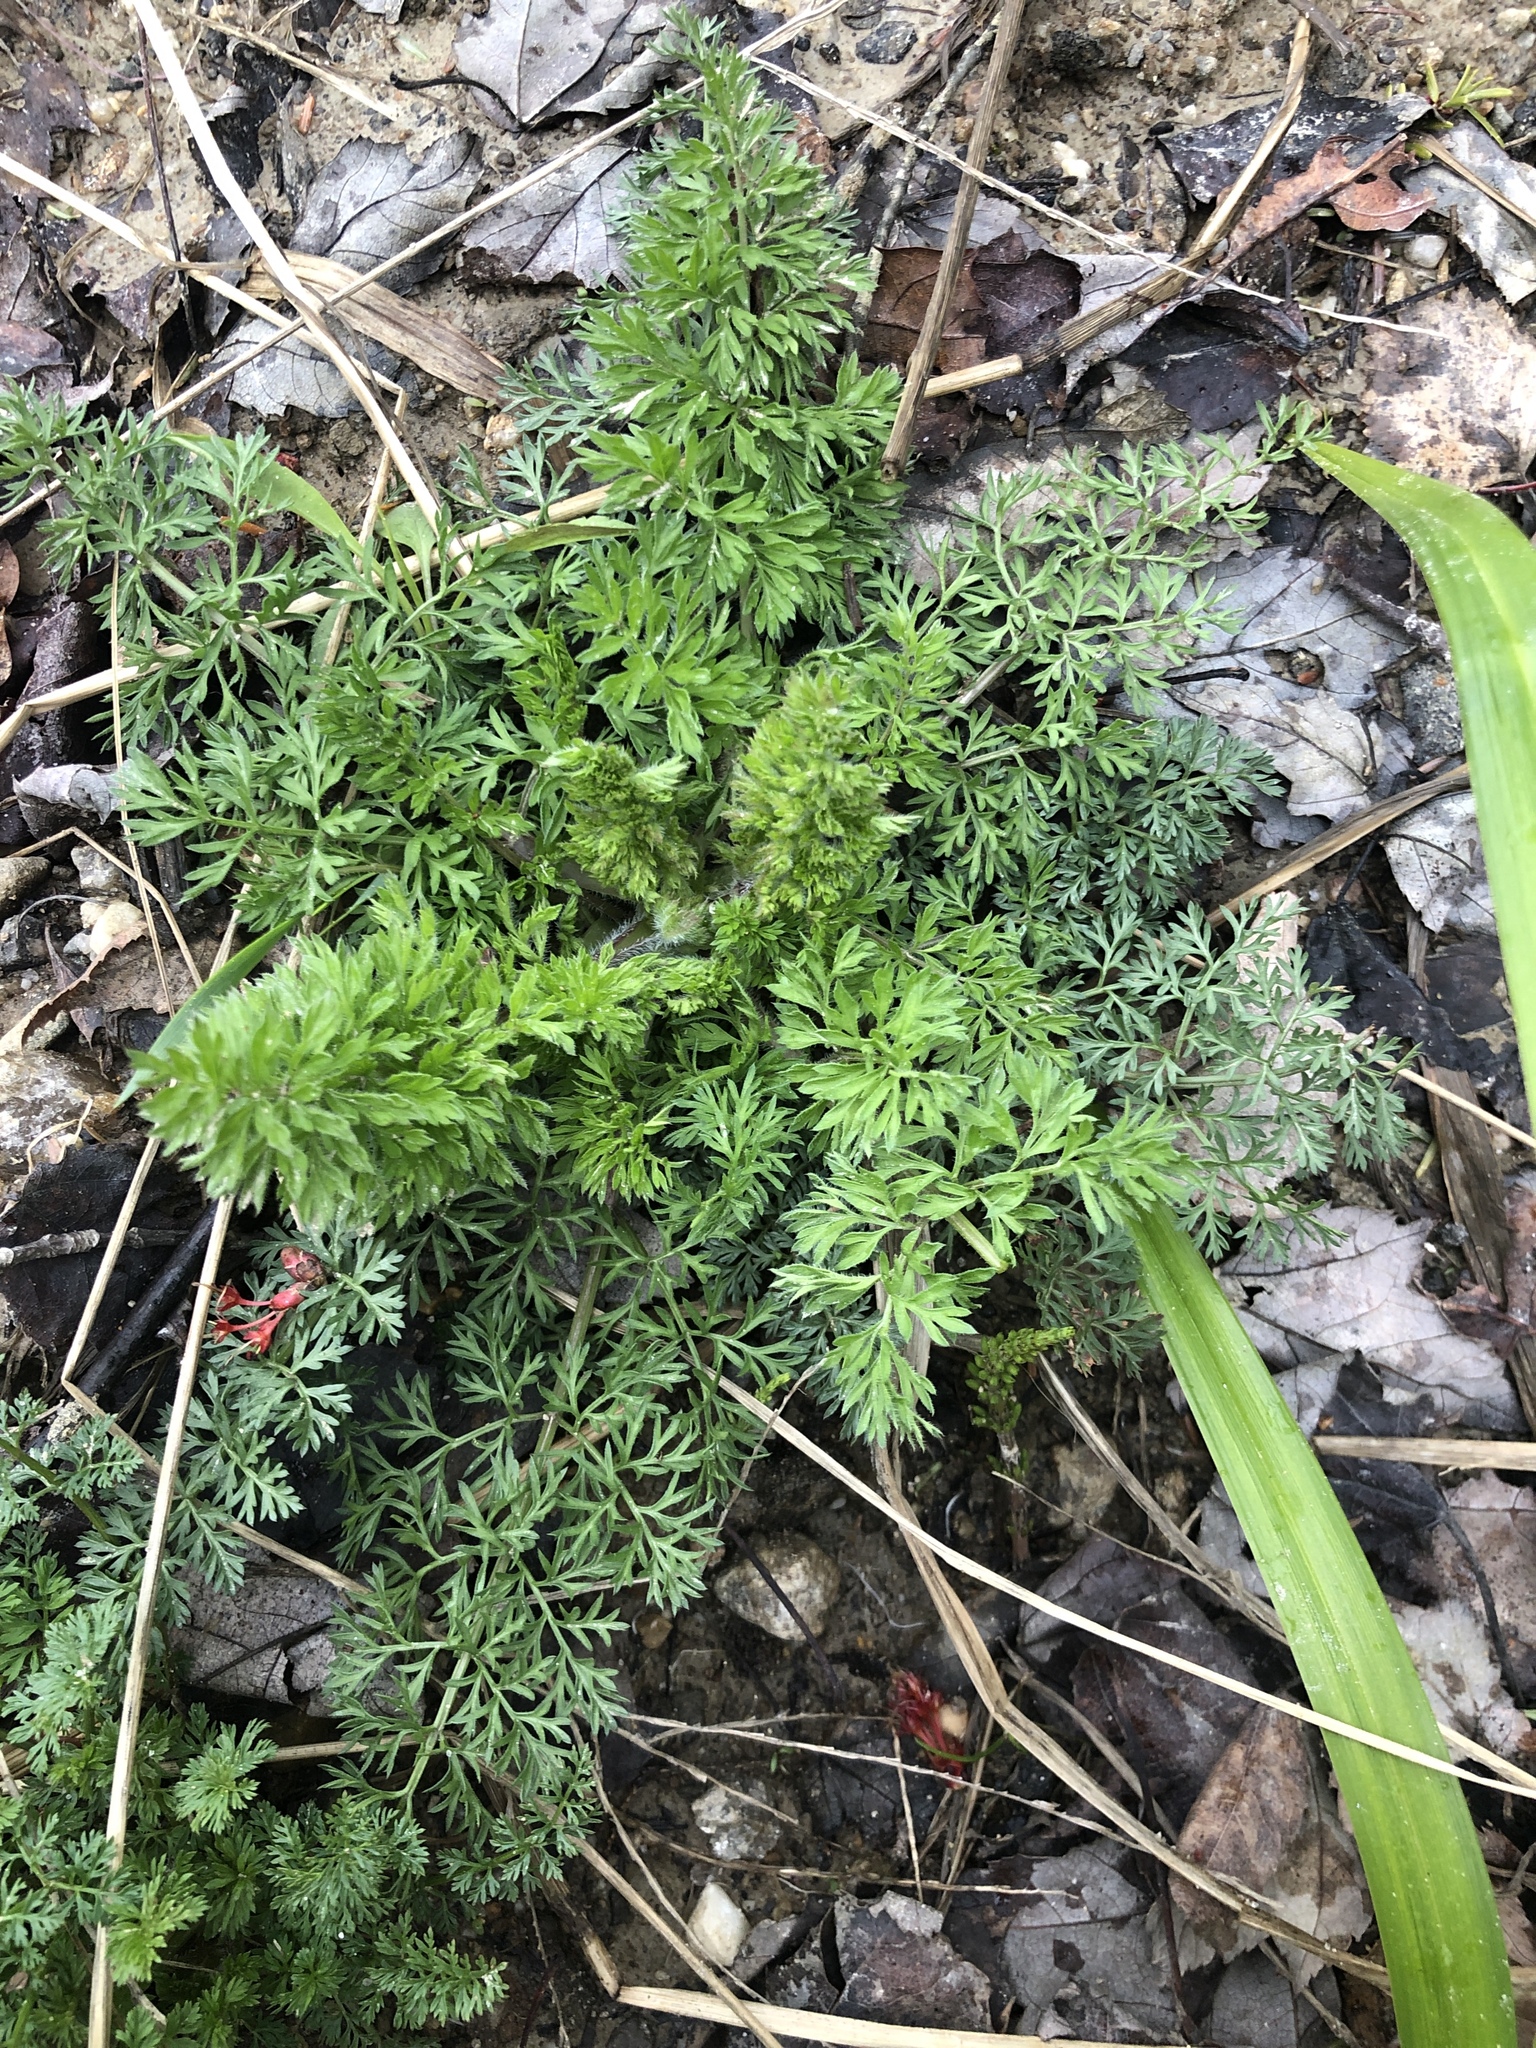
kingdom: Plantae
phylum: Tracheophyta
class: Magnoliopsida
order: Apiales
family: Apiaceae
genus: Daucus
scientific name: Daucus carota
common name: Wild carrot
